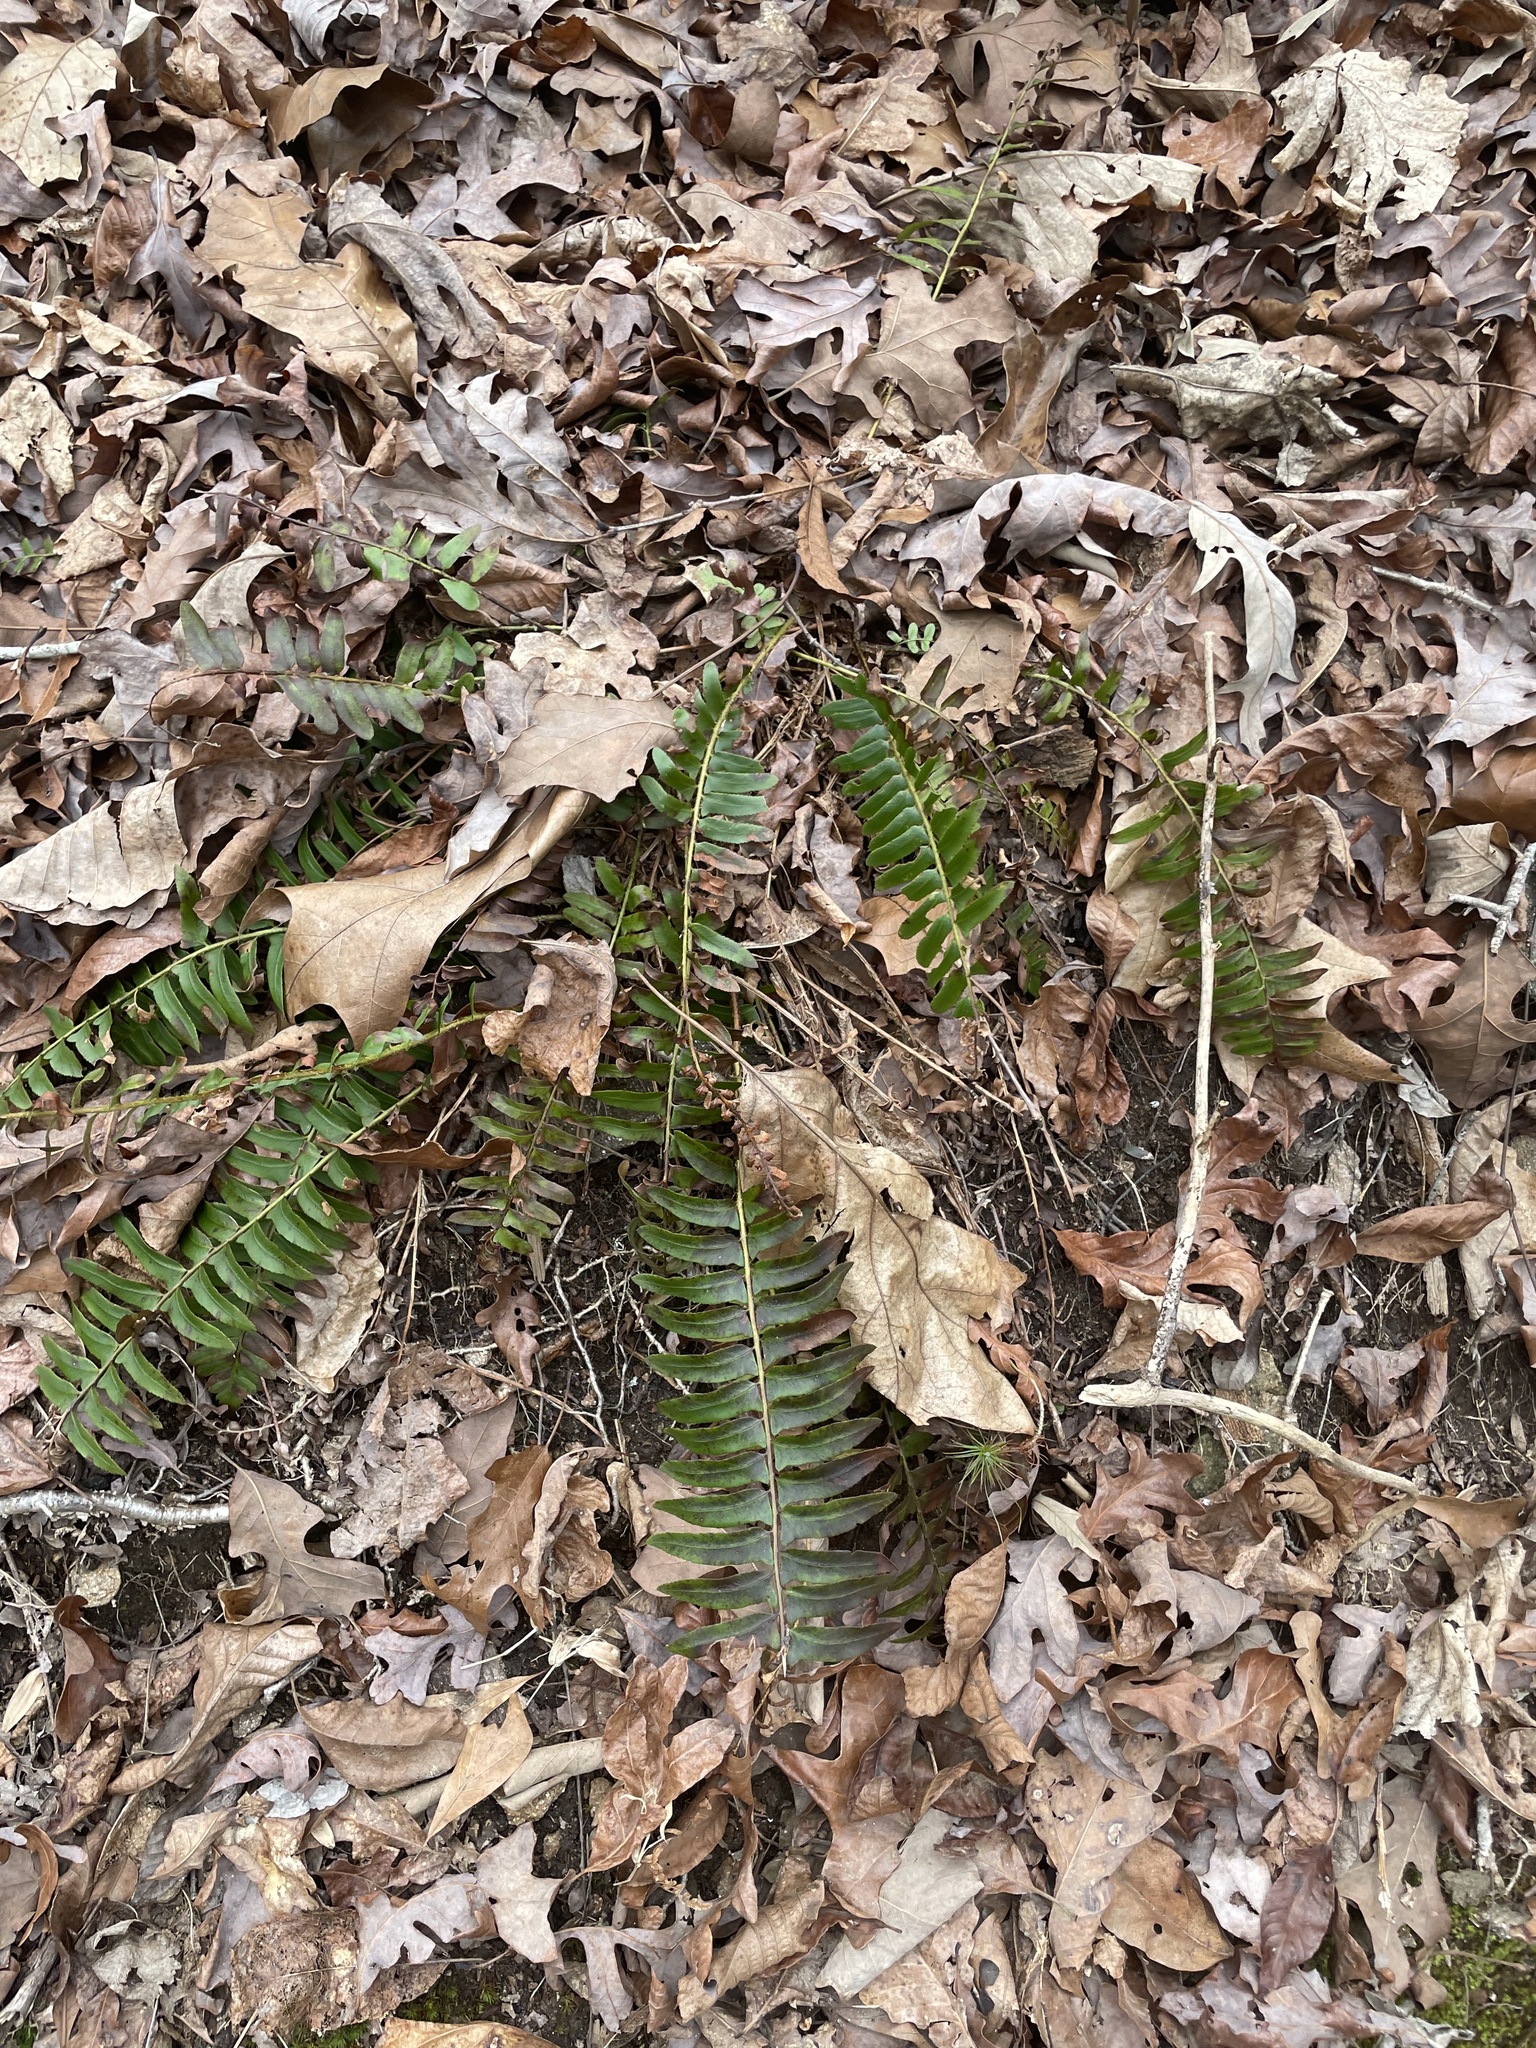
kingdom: Plantae
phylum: Tracheophyta
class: Polypodiopsida
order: Polypodiales
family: Dryopteridaceae
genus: Polystichum
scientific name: Polystichum acrostichoides
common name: Christmas fern
